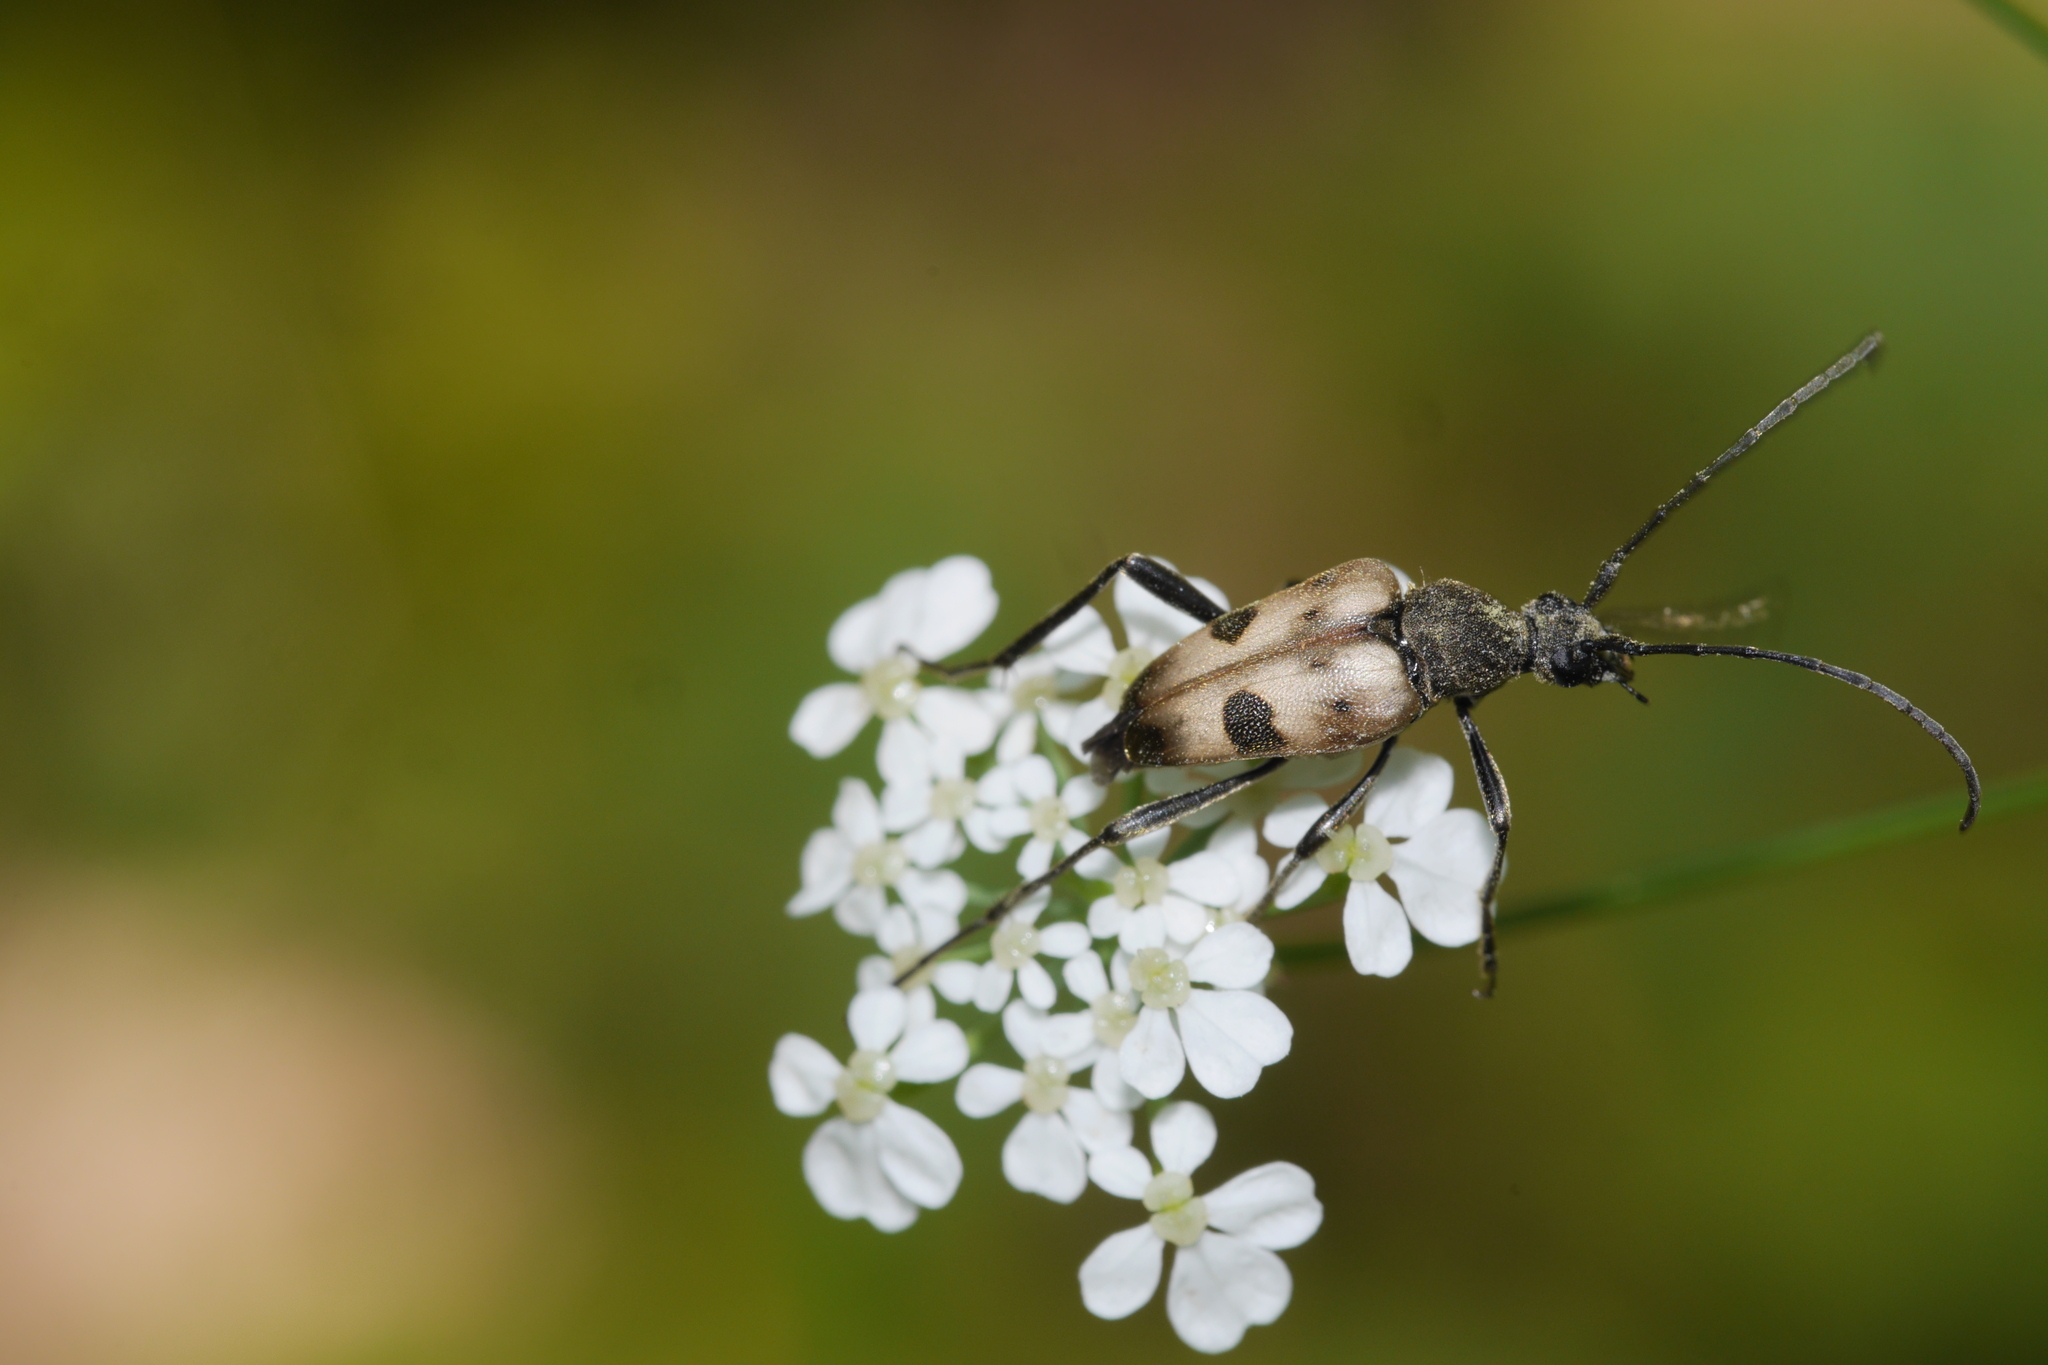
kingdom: Animalia
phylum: Arthropoda
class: Insecta
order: Coleoptera
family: Cerambycidae
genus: Pachytodes
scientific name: Pachytodes cerambyciformis
